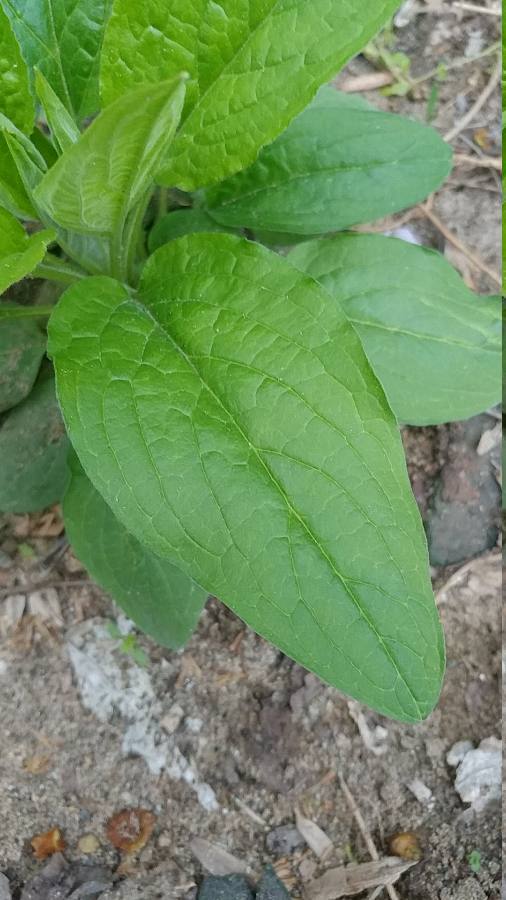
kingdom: Plantae
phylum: Tracheophyta
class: Magnoliopsida
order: Boraginales
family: Boraginaceae
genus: Hackelia
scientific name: Hackelia virginiana
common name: Beggar's-lice
